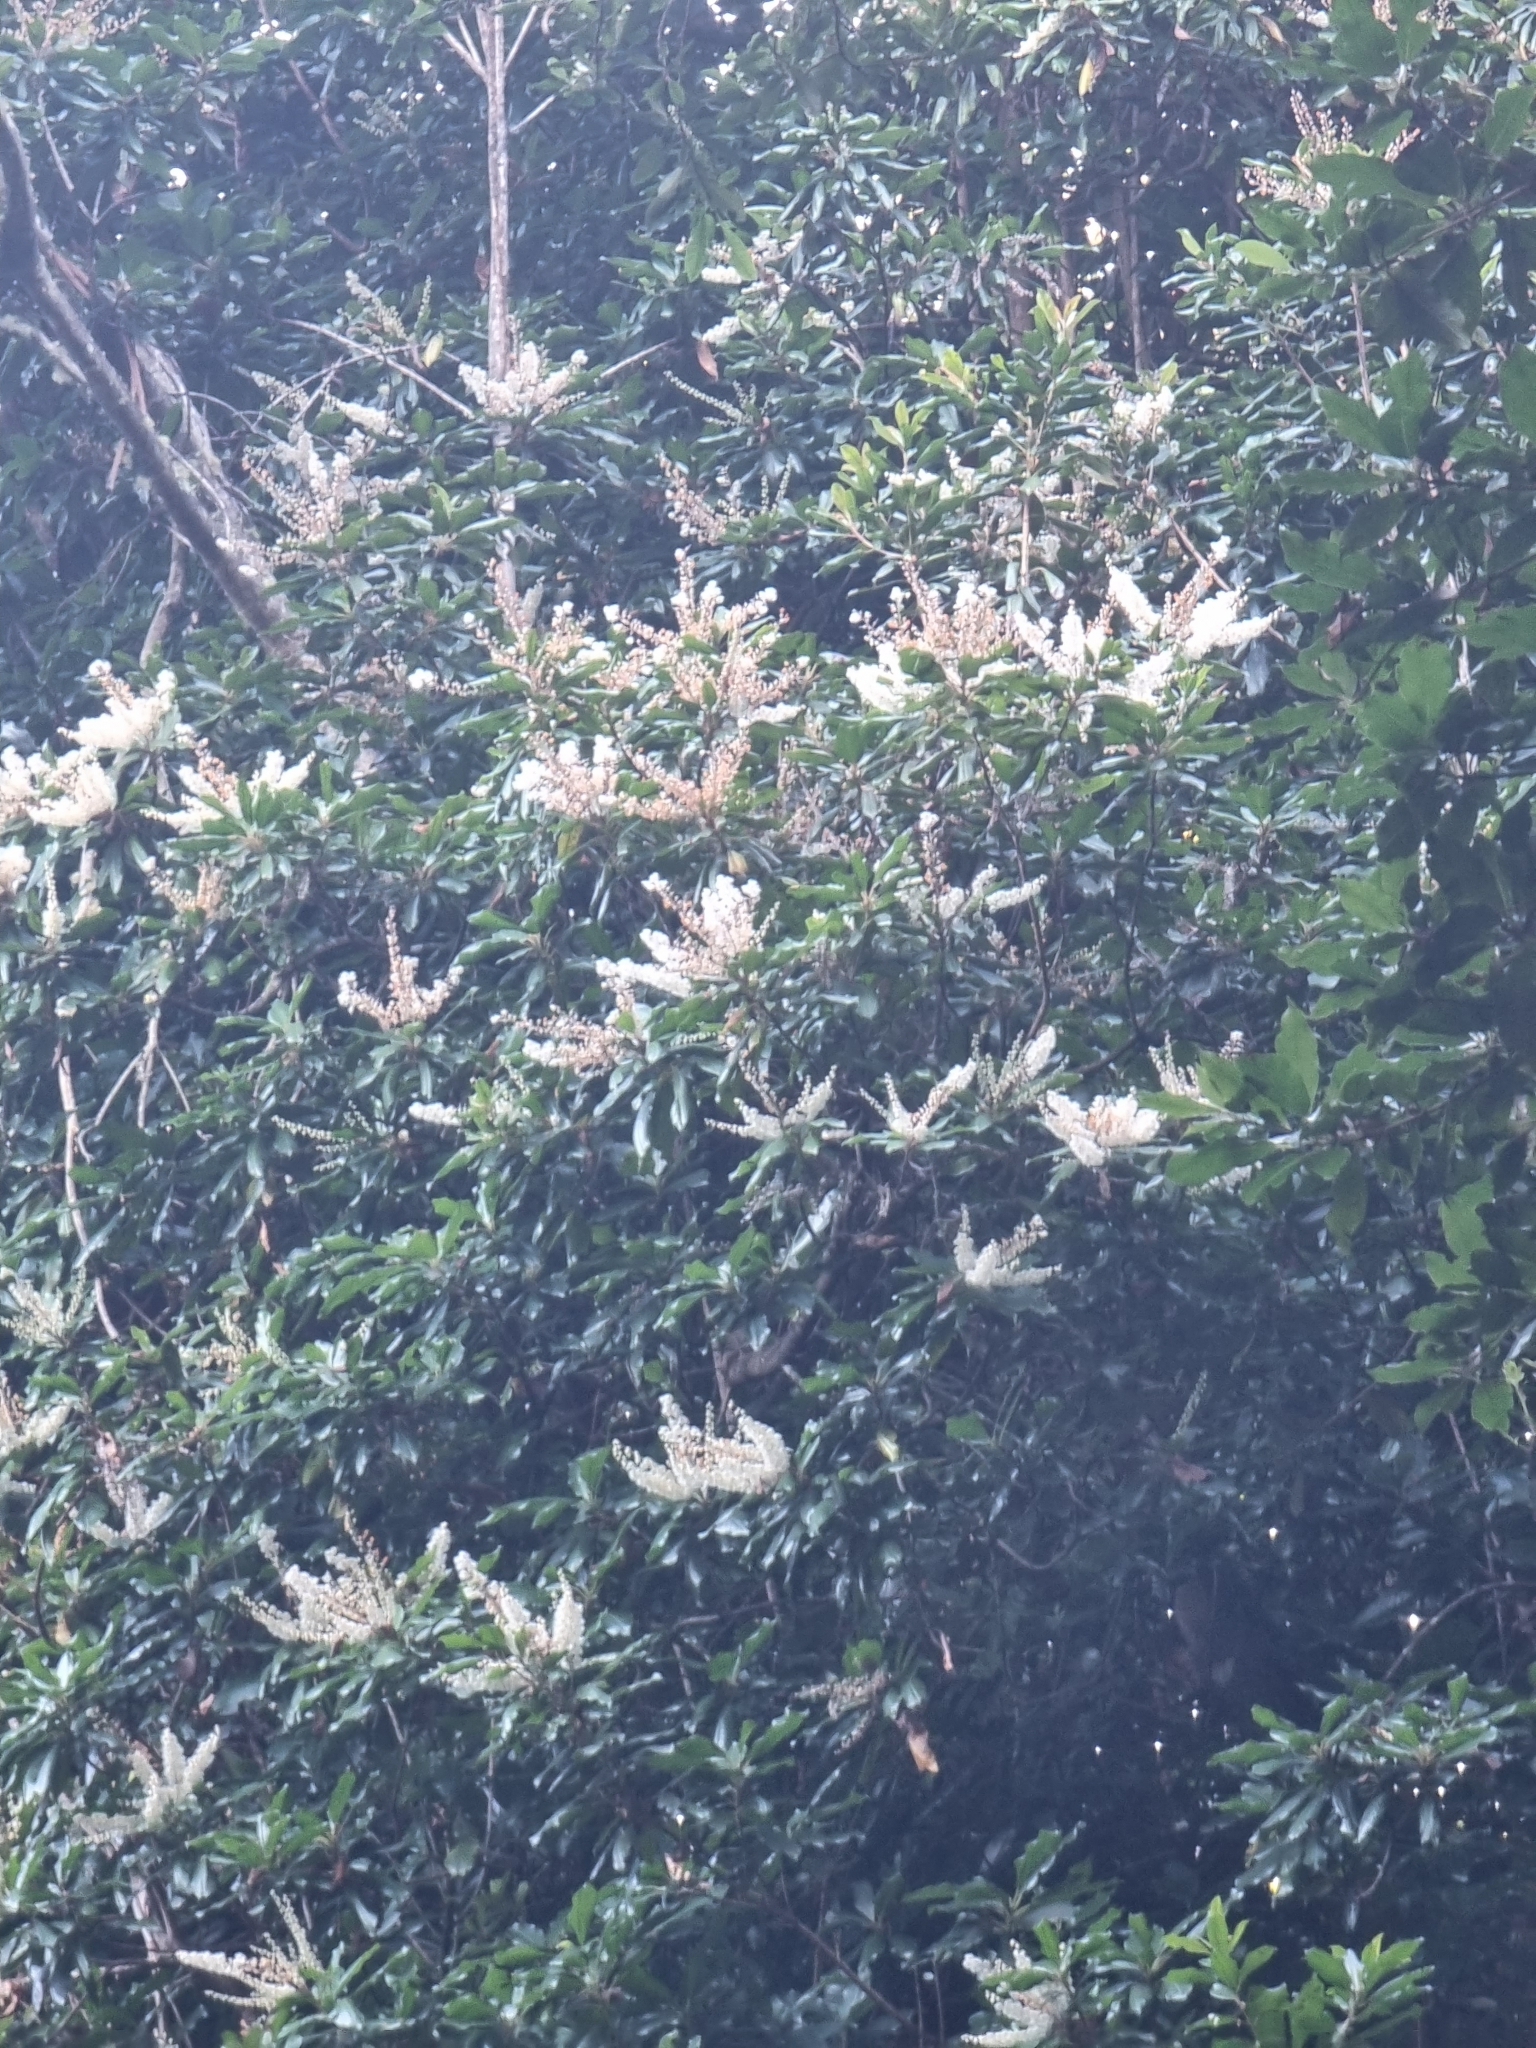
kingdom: Plantae
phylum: Tracheophyta
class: Magnoliopsida
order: Ericales
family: Clethraceae
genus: Clethra
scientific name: Clethra arborea
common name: Lily-of-the-valley-tree
